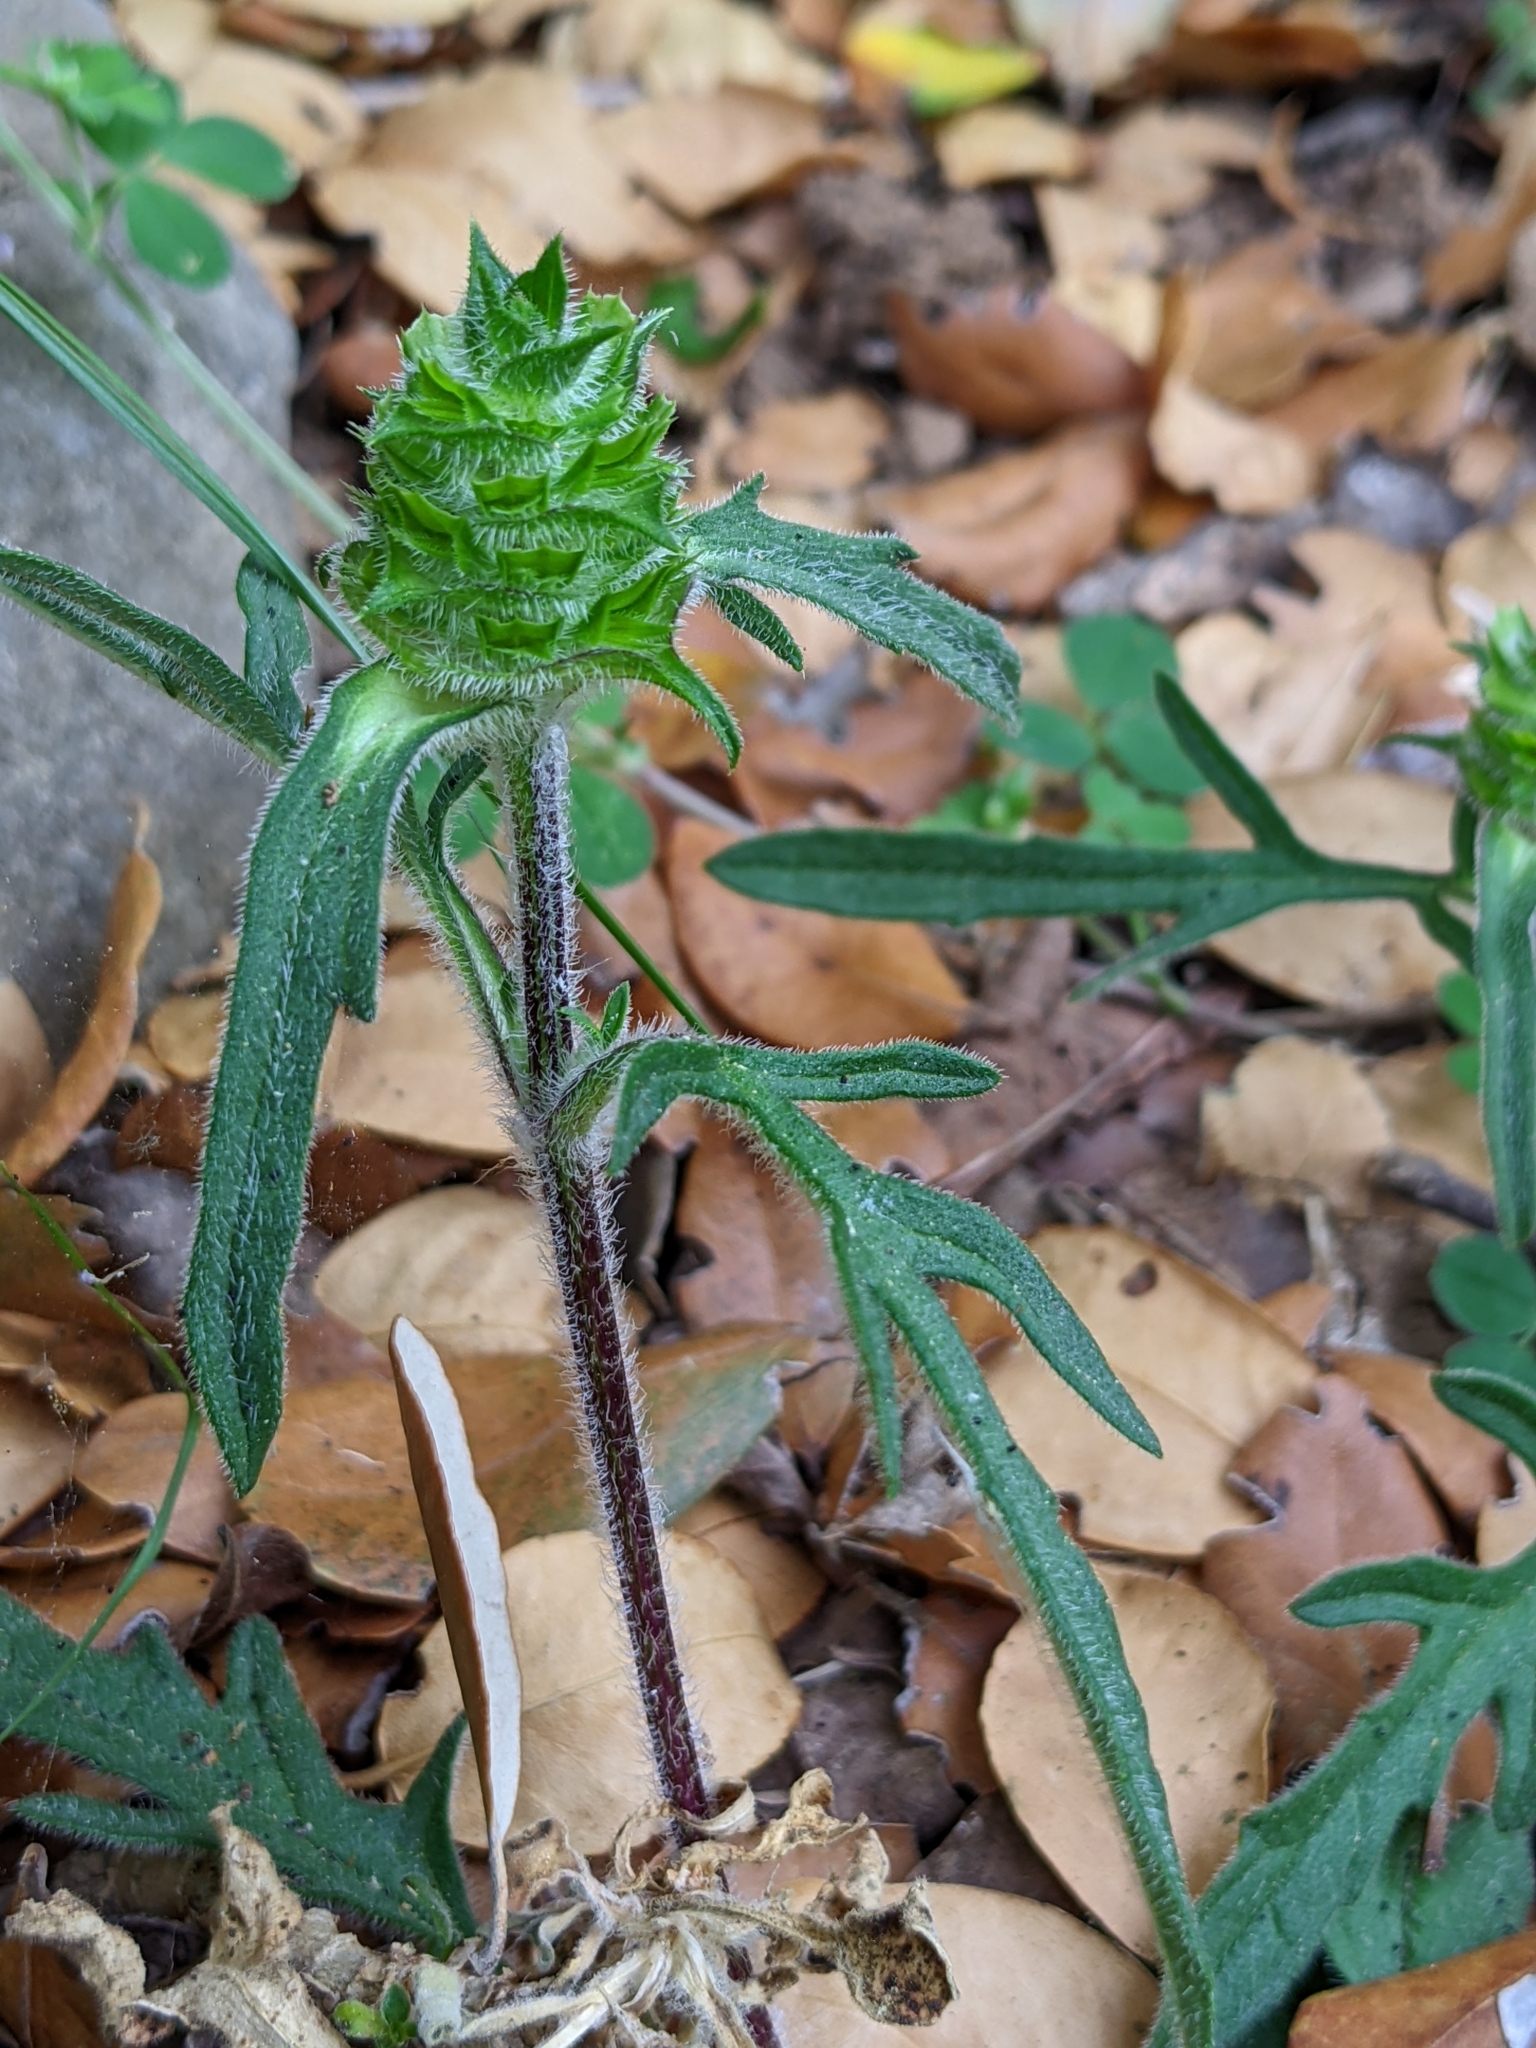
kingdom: Plantae
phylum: Tracheophyta
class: Magnoliopsida
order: Lamiales
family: Lamiaceae
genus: Prunella
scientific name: Prunella laciniata
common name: Cut-leaved selfheal
